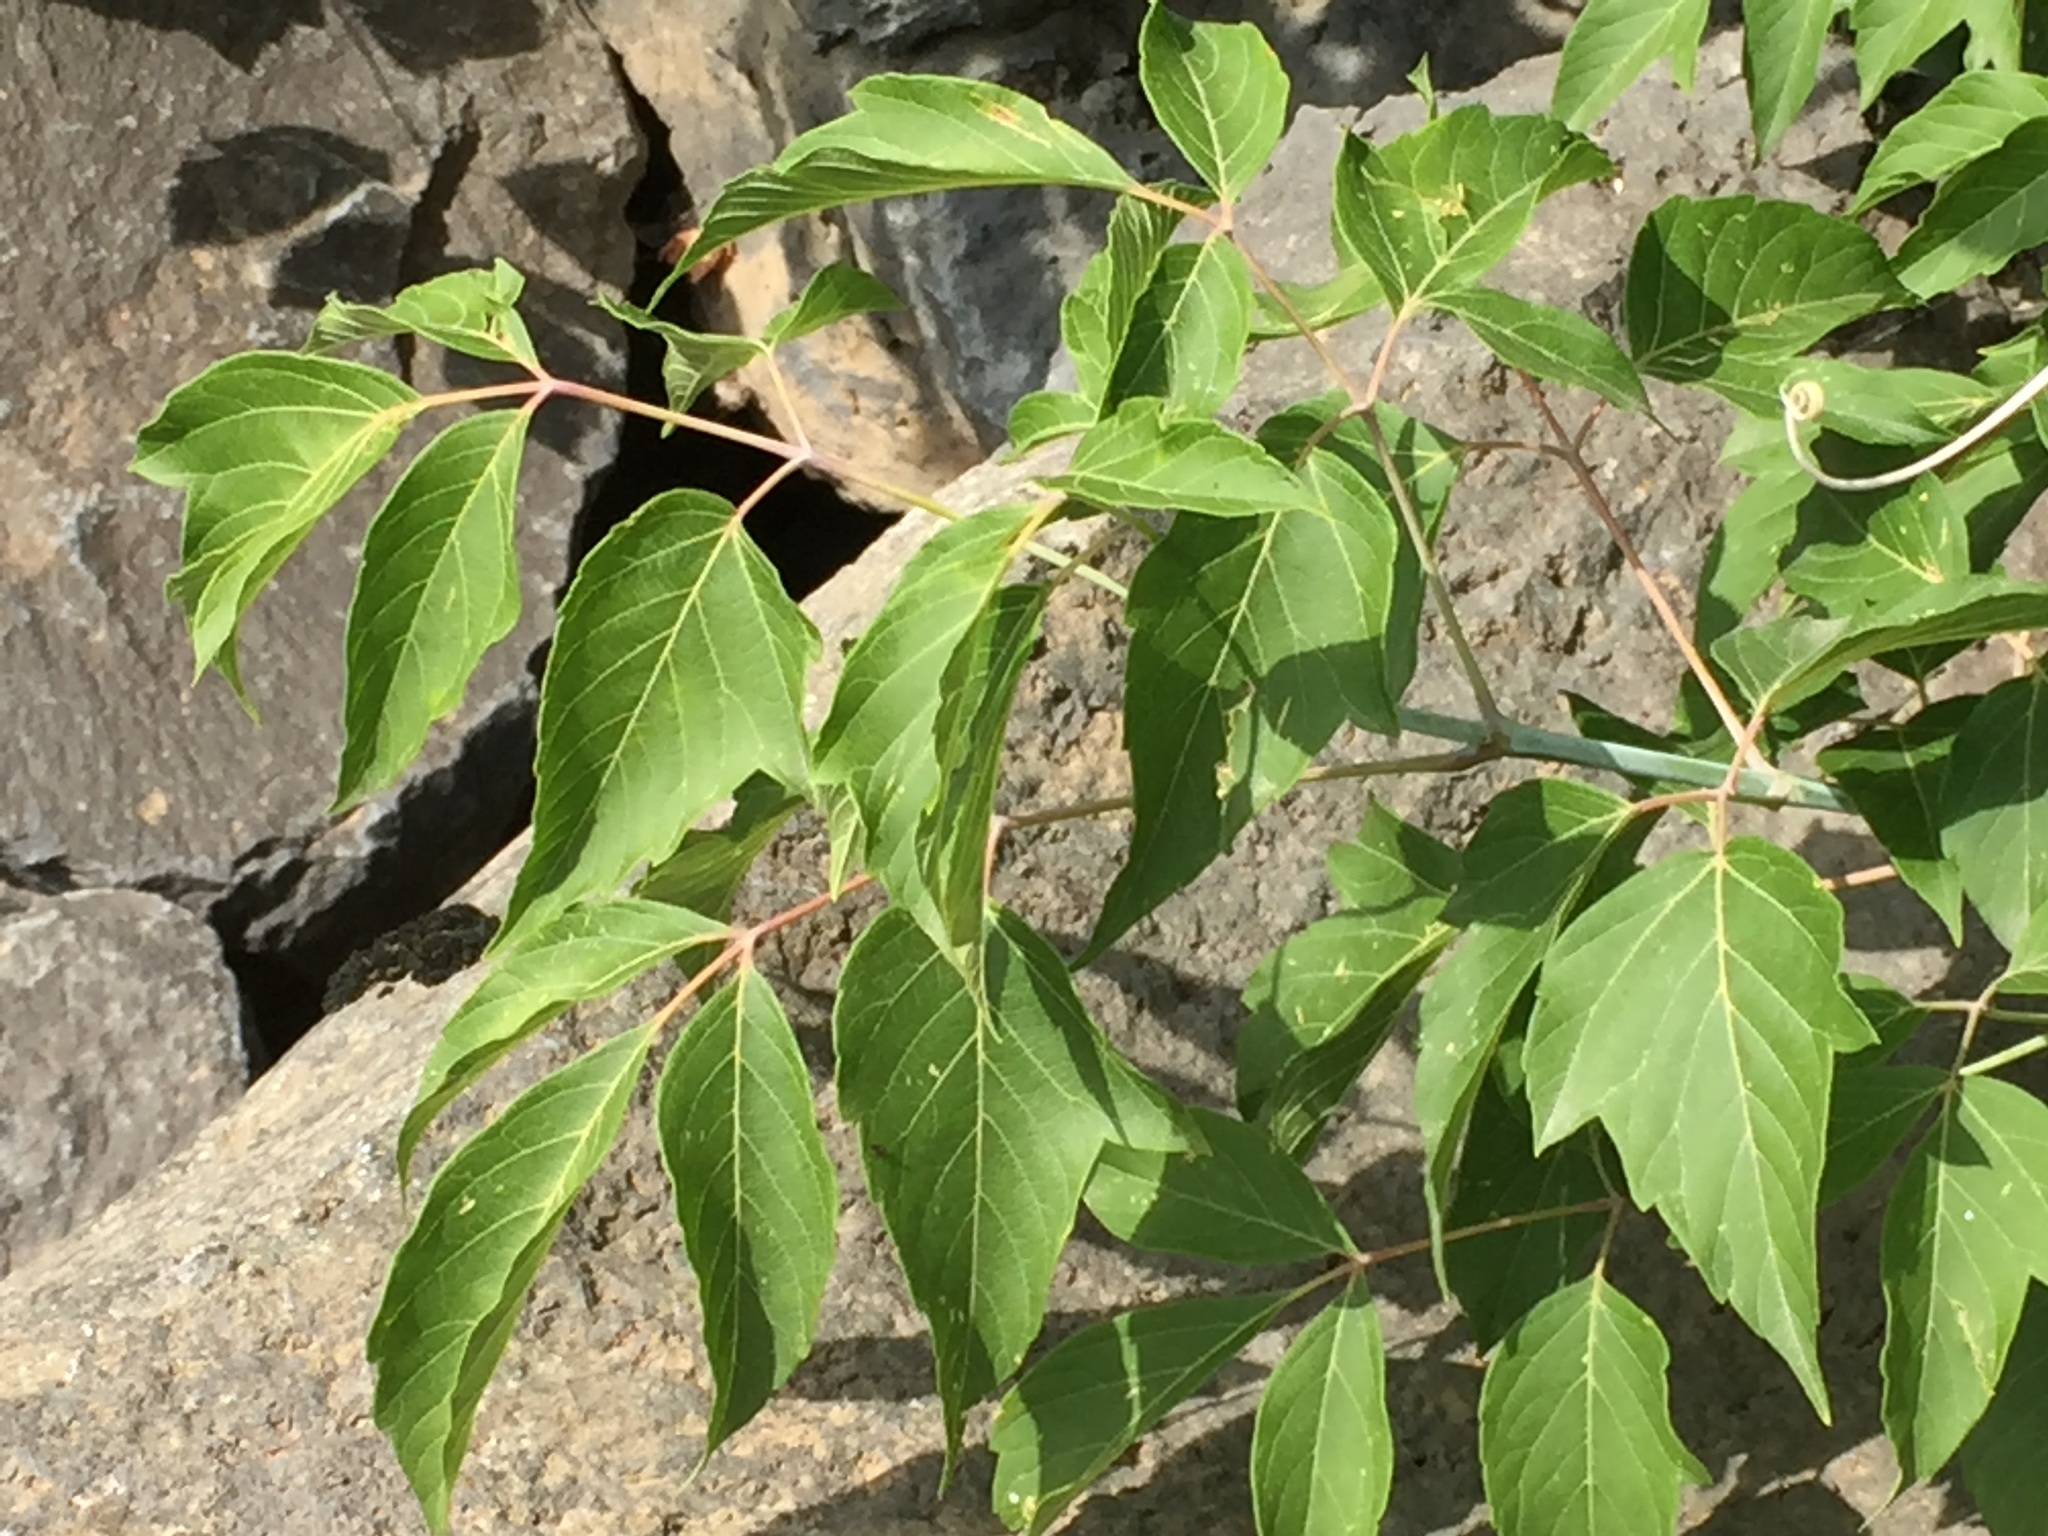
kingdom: Plantae
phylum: Tracheophyta
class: Magnoliopsida
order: Sapindales
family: Sapindaceae
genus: Acer
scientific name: Acer negundo
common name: Ashleaf maple
